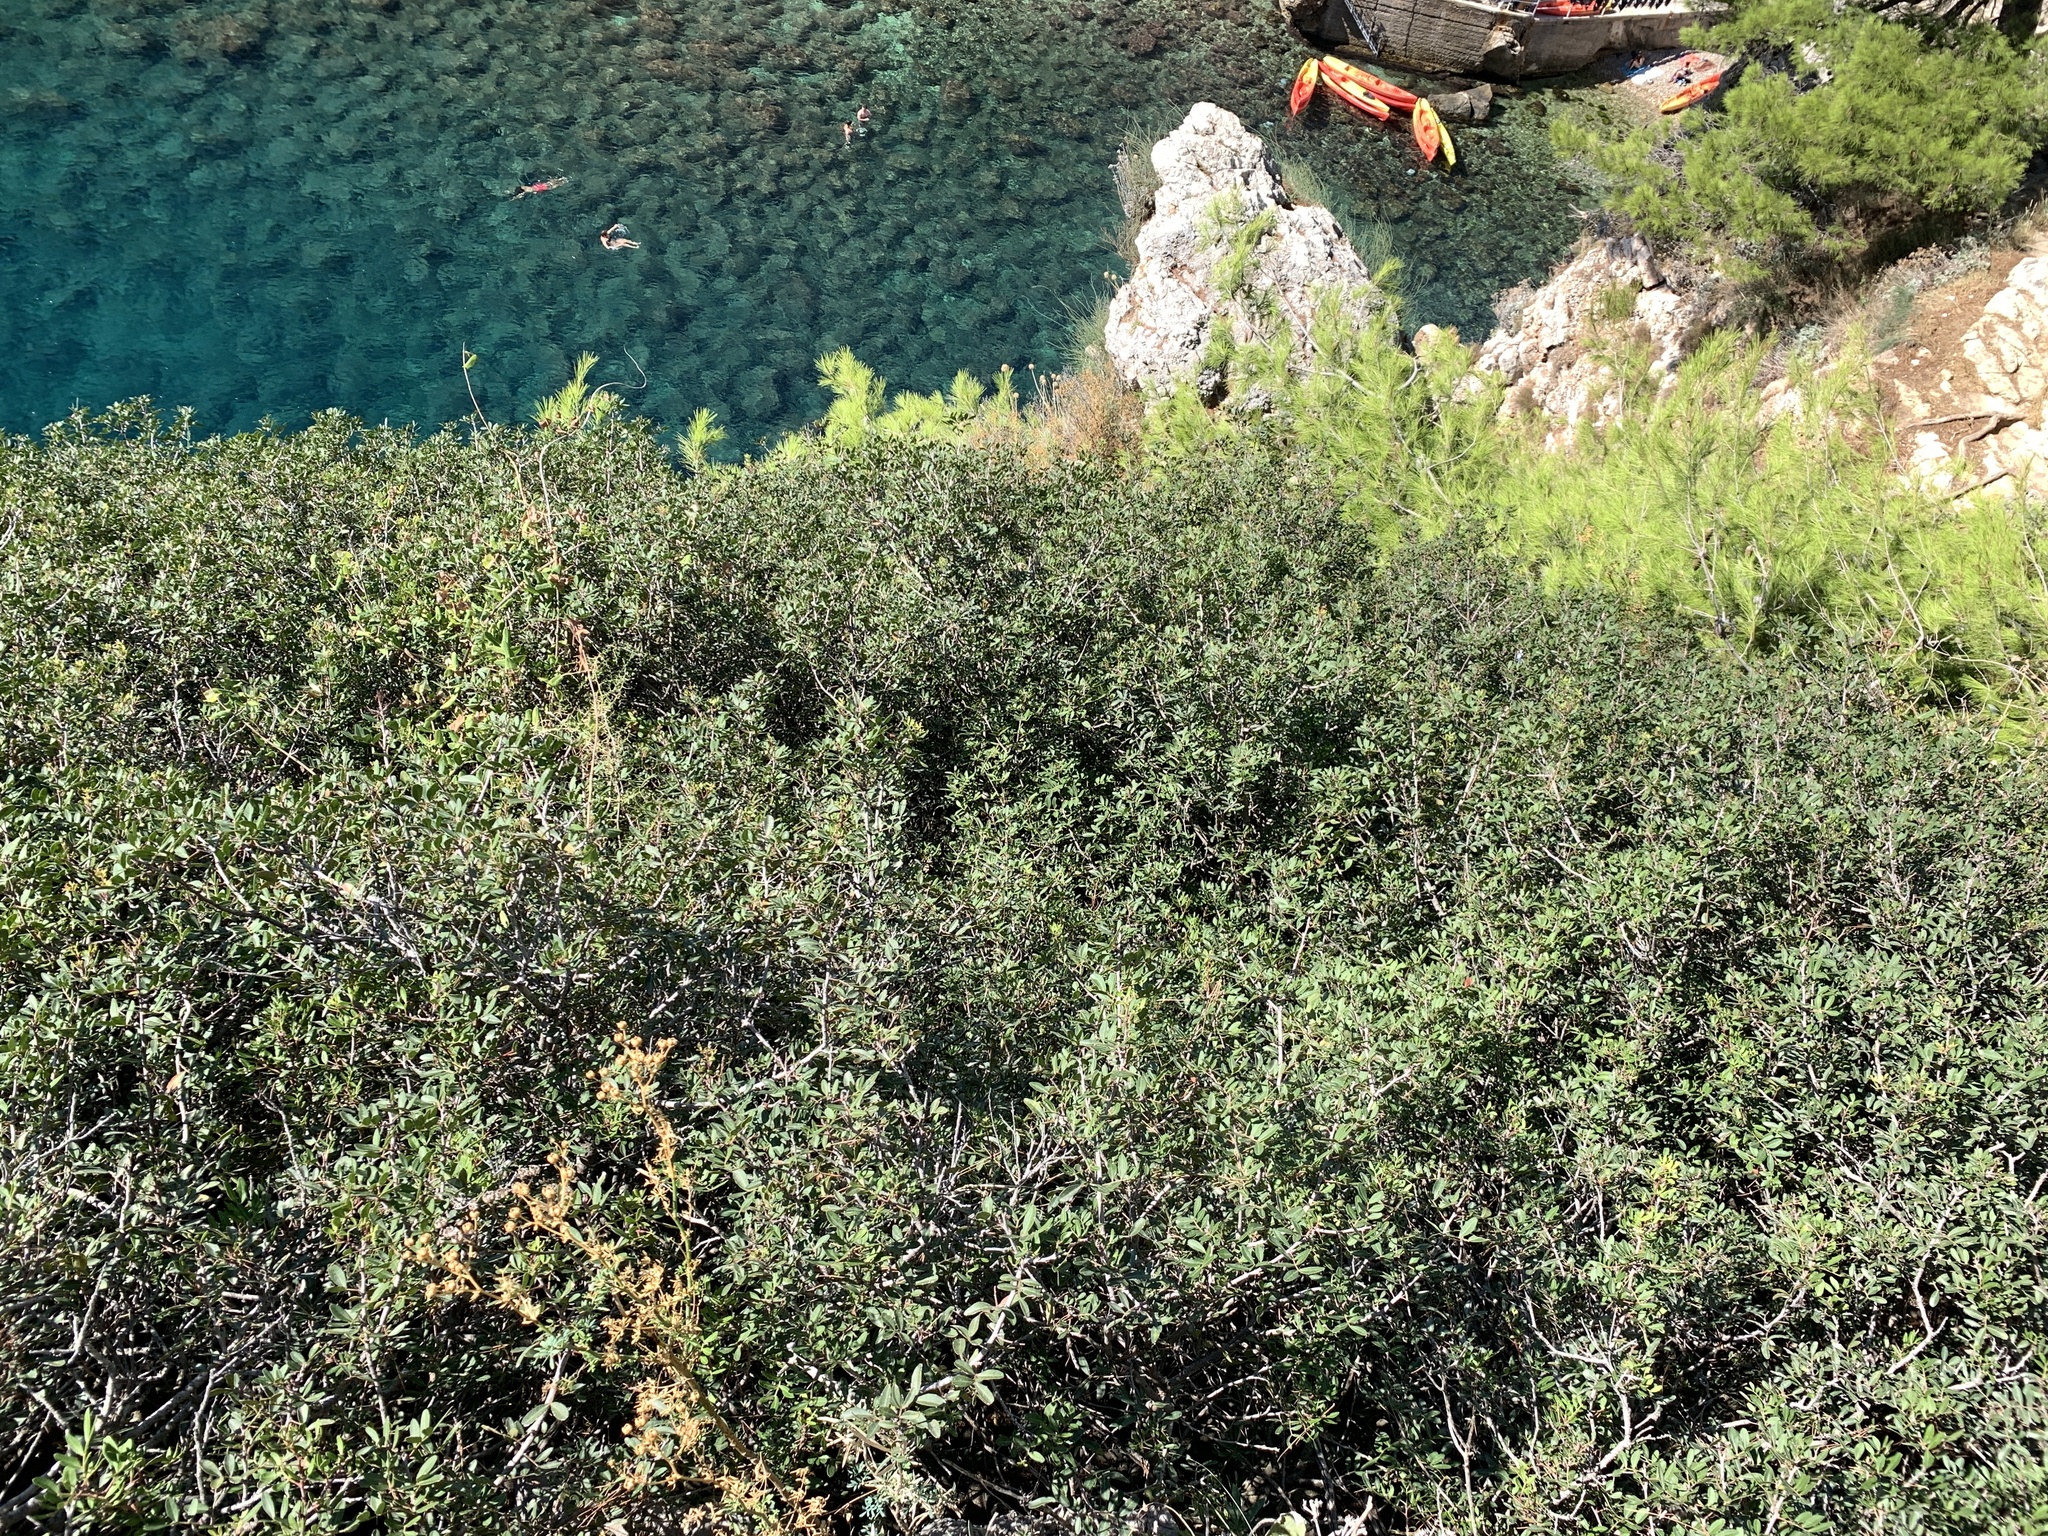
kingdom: Plantae
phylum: Tracheophyta
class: Magnoliopsida
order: Sapindales
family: Anacardiaceae
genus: Pistacia
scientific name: Pistacia lentiscus
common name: Lentisk
